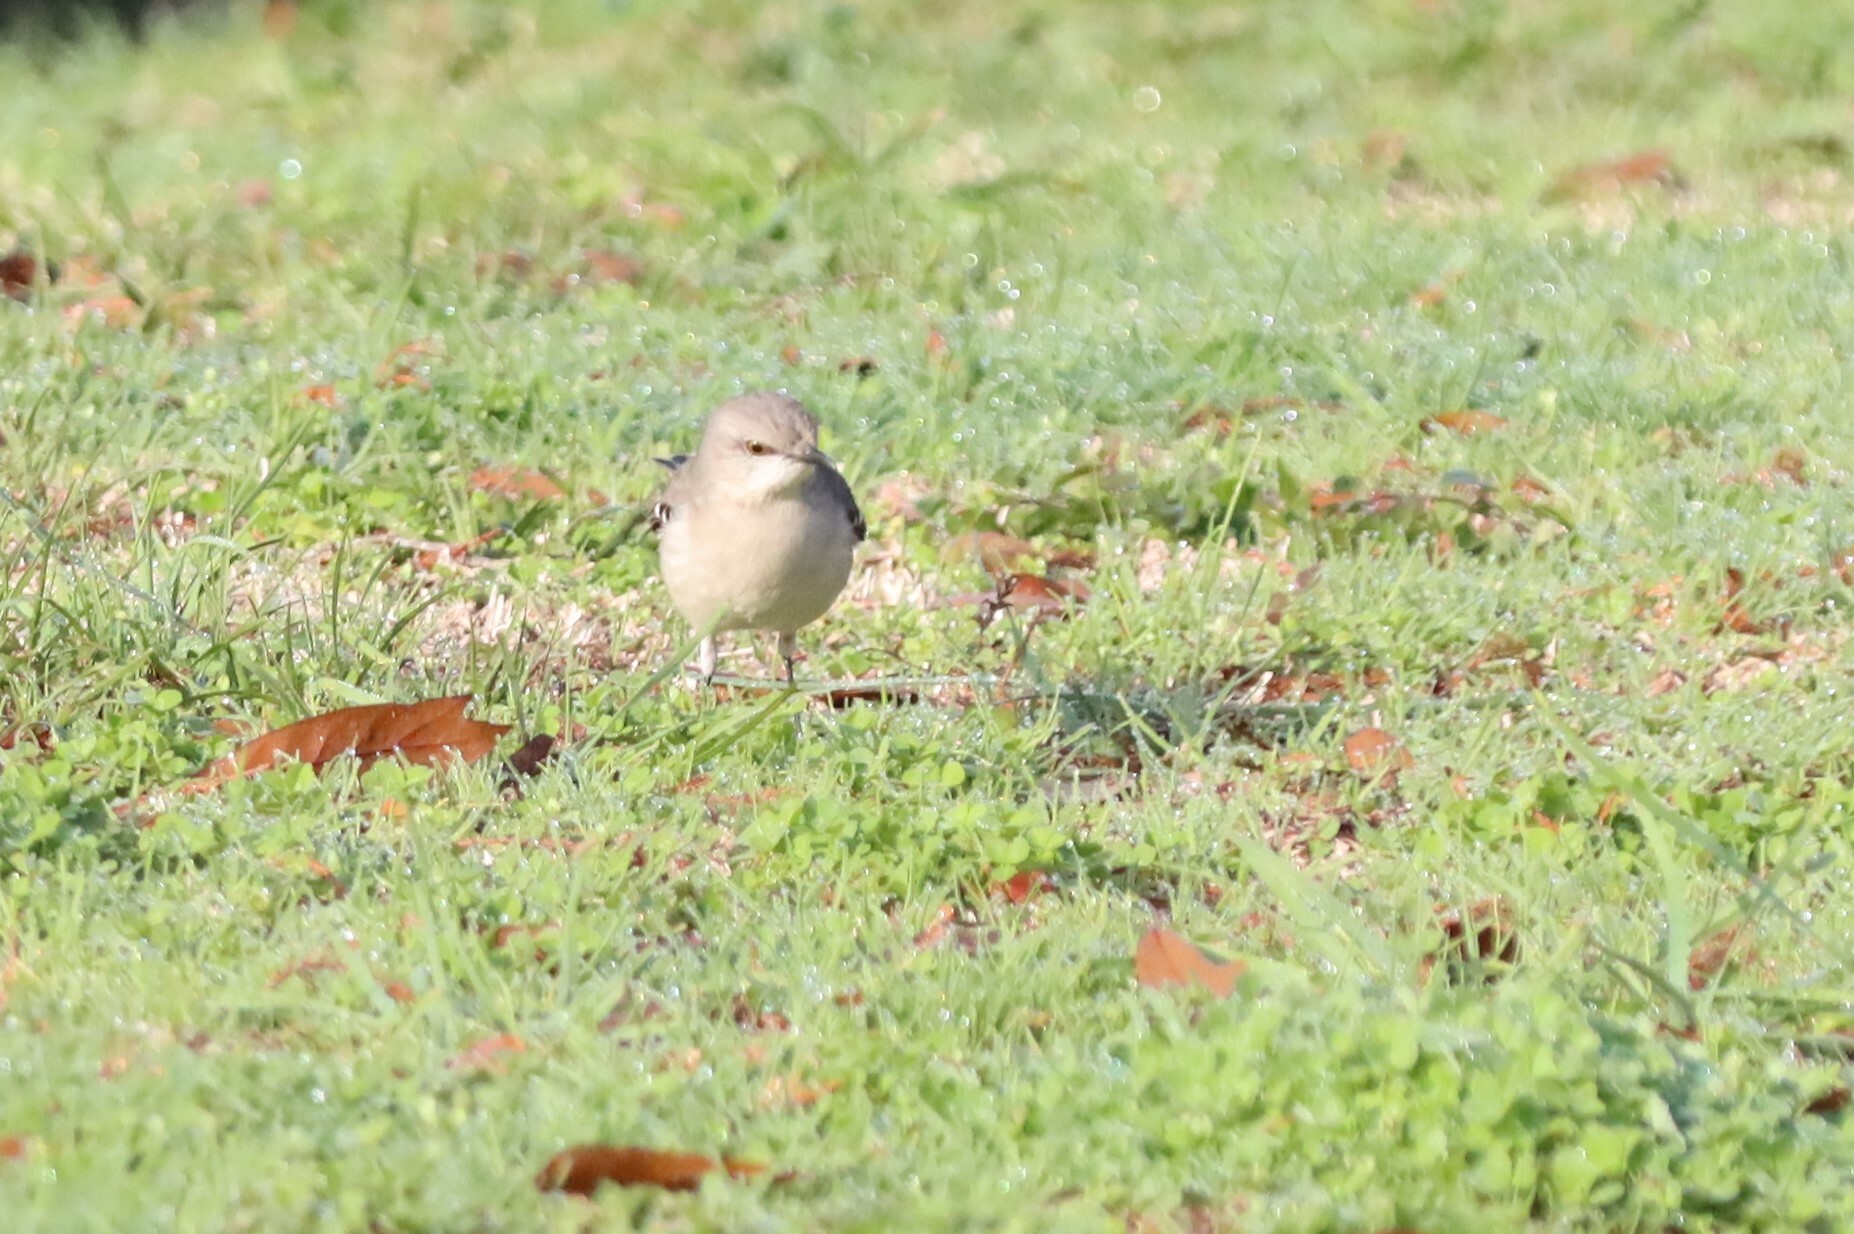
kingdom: Animalia
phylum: Chordata
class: Aves
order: Passeriformes
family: Mimidae
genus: Mimus
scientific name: Mimus polyglottos
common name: Northern mockingbird
